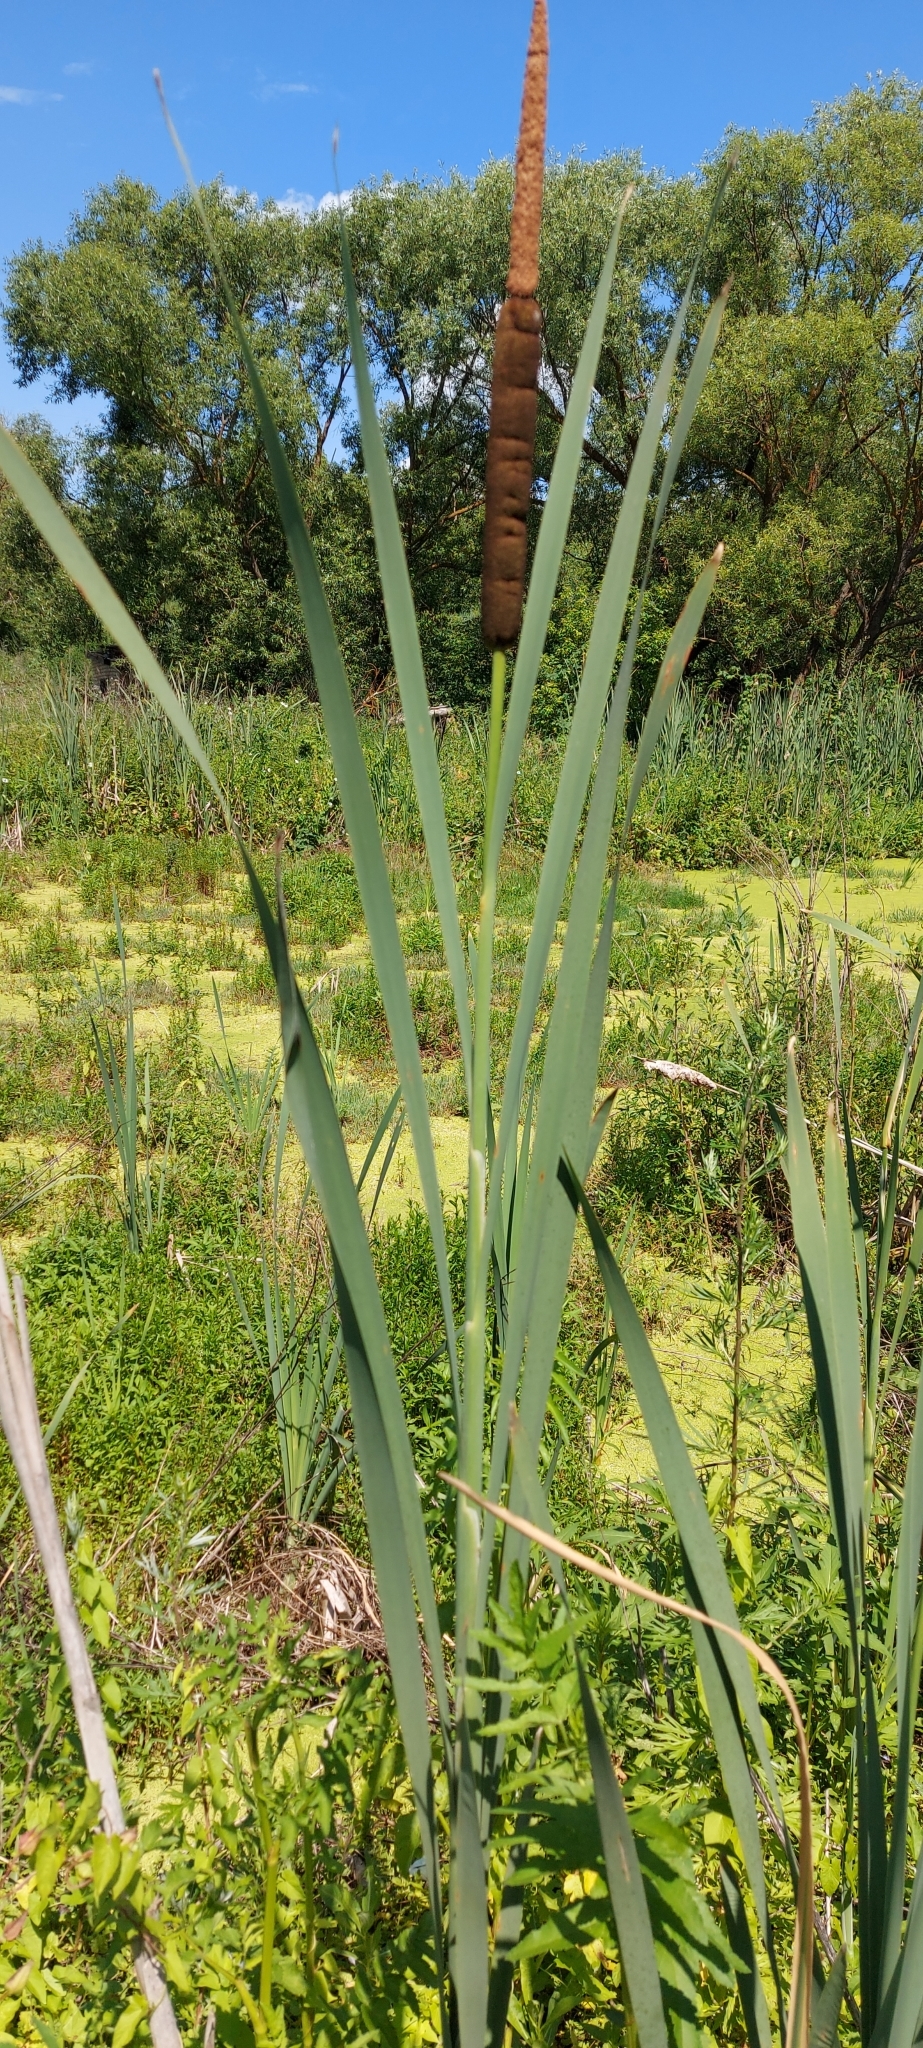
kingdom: Plantae
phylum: Tracheophyta
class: Liliopsida
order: Poales
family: Typhaceae
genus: Typha
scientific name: Typha latifolia
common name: Broadleaf cattail
